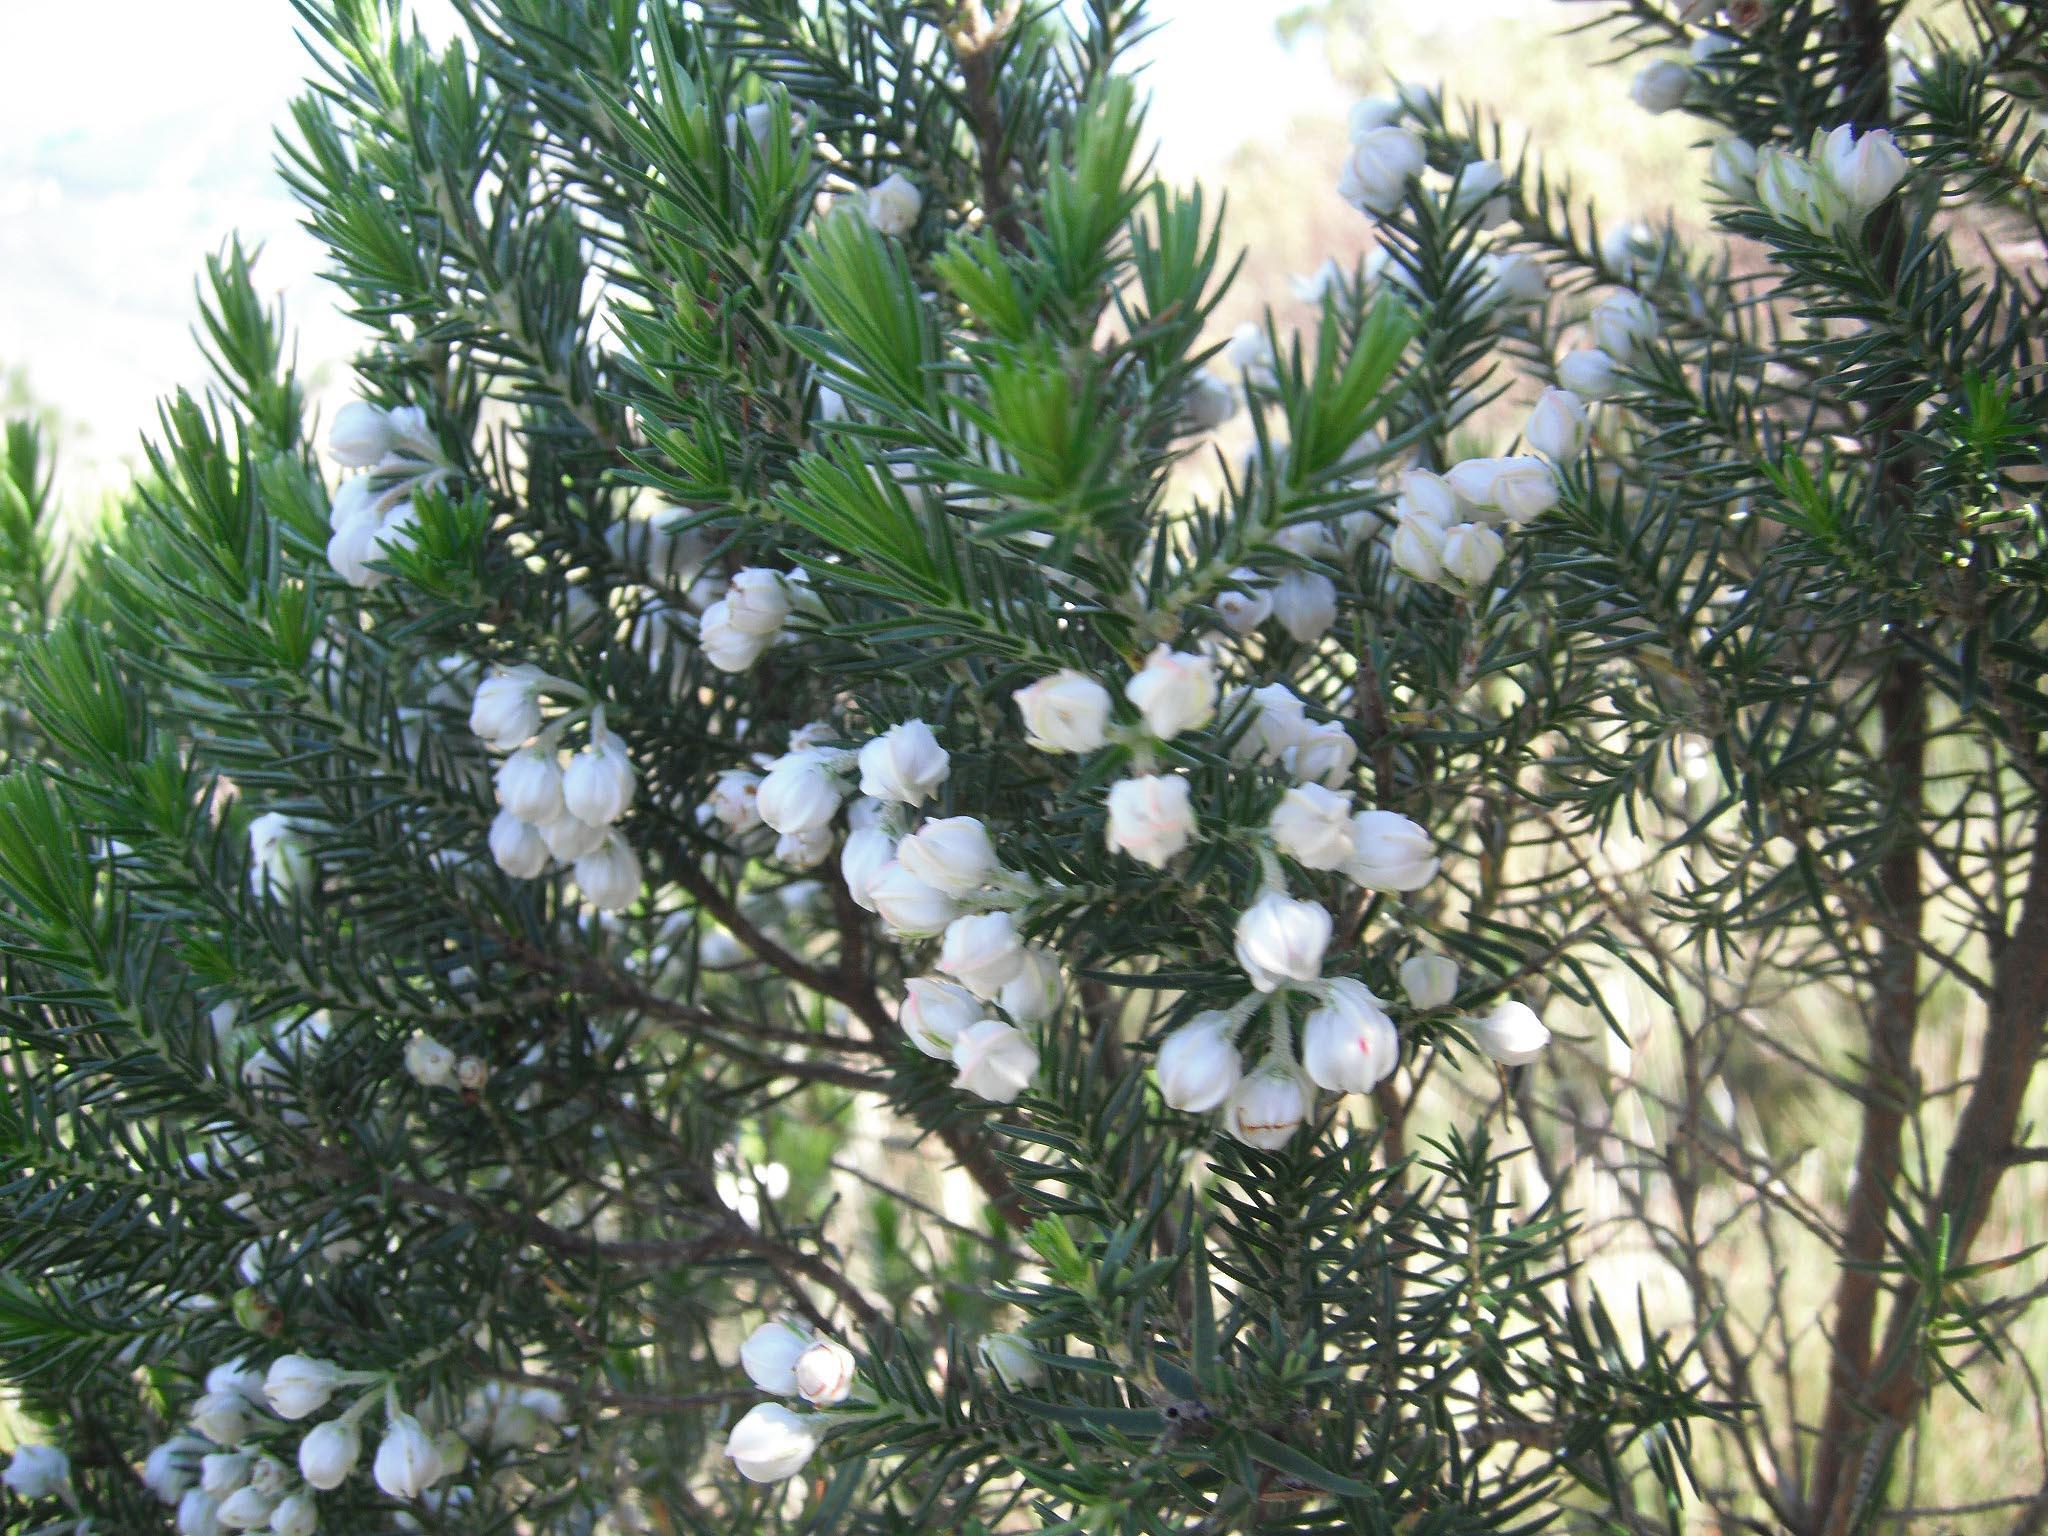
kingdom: Plantae
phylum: Tracheophyta
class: Magnoliopsida
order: Ericales
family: Ericaceae
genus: Erica
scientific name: Erica triflora
